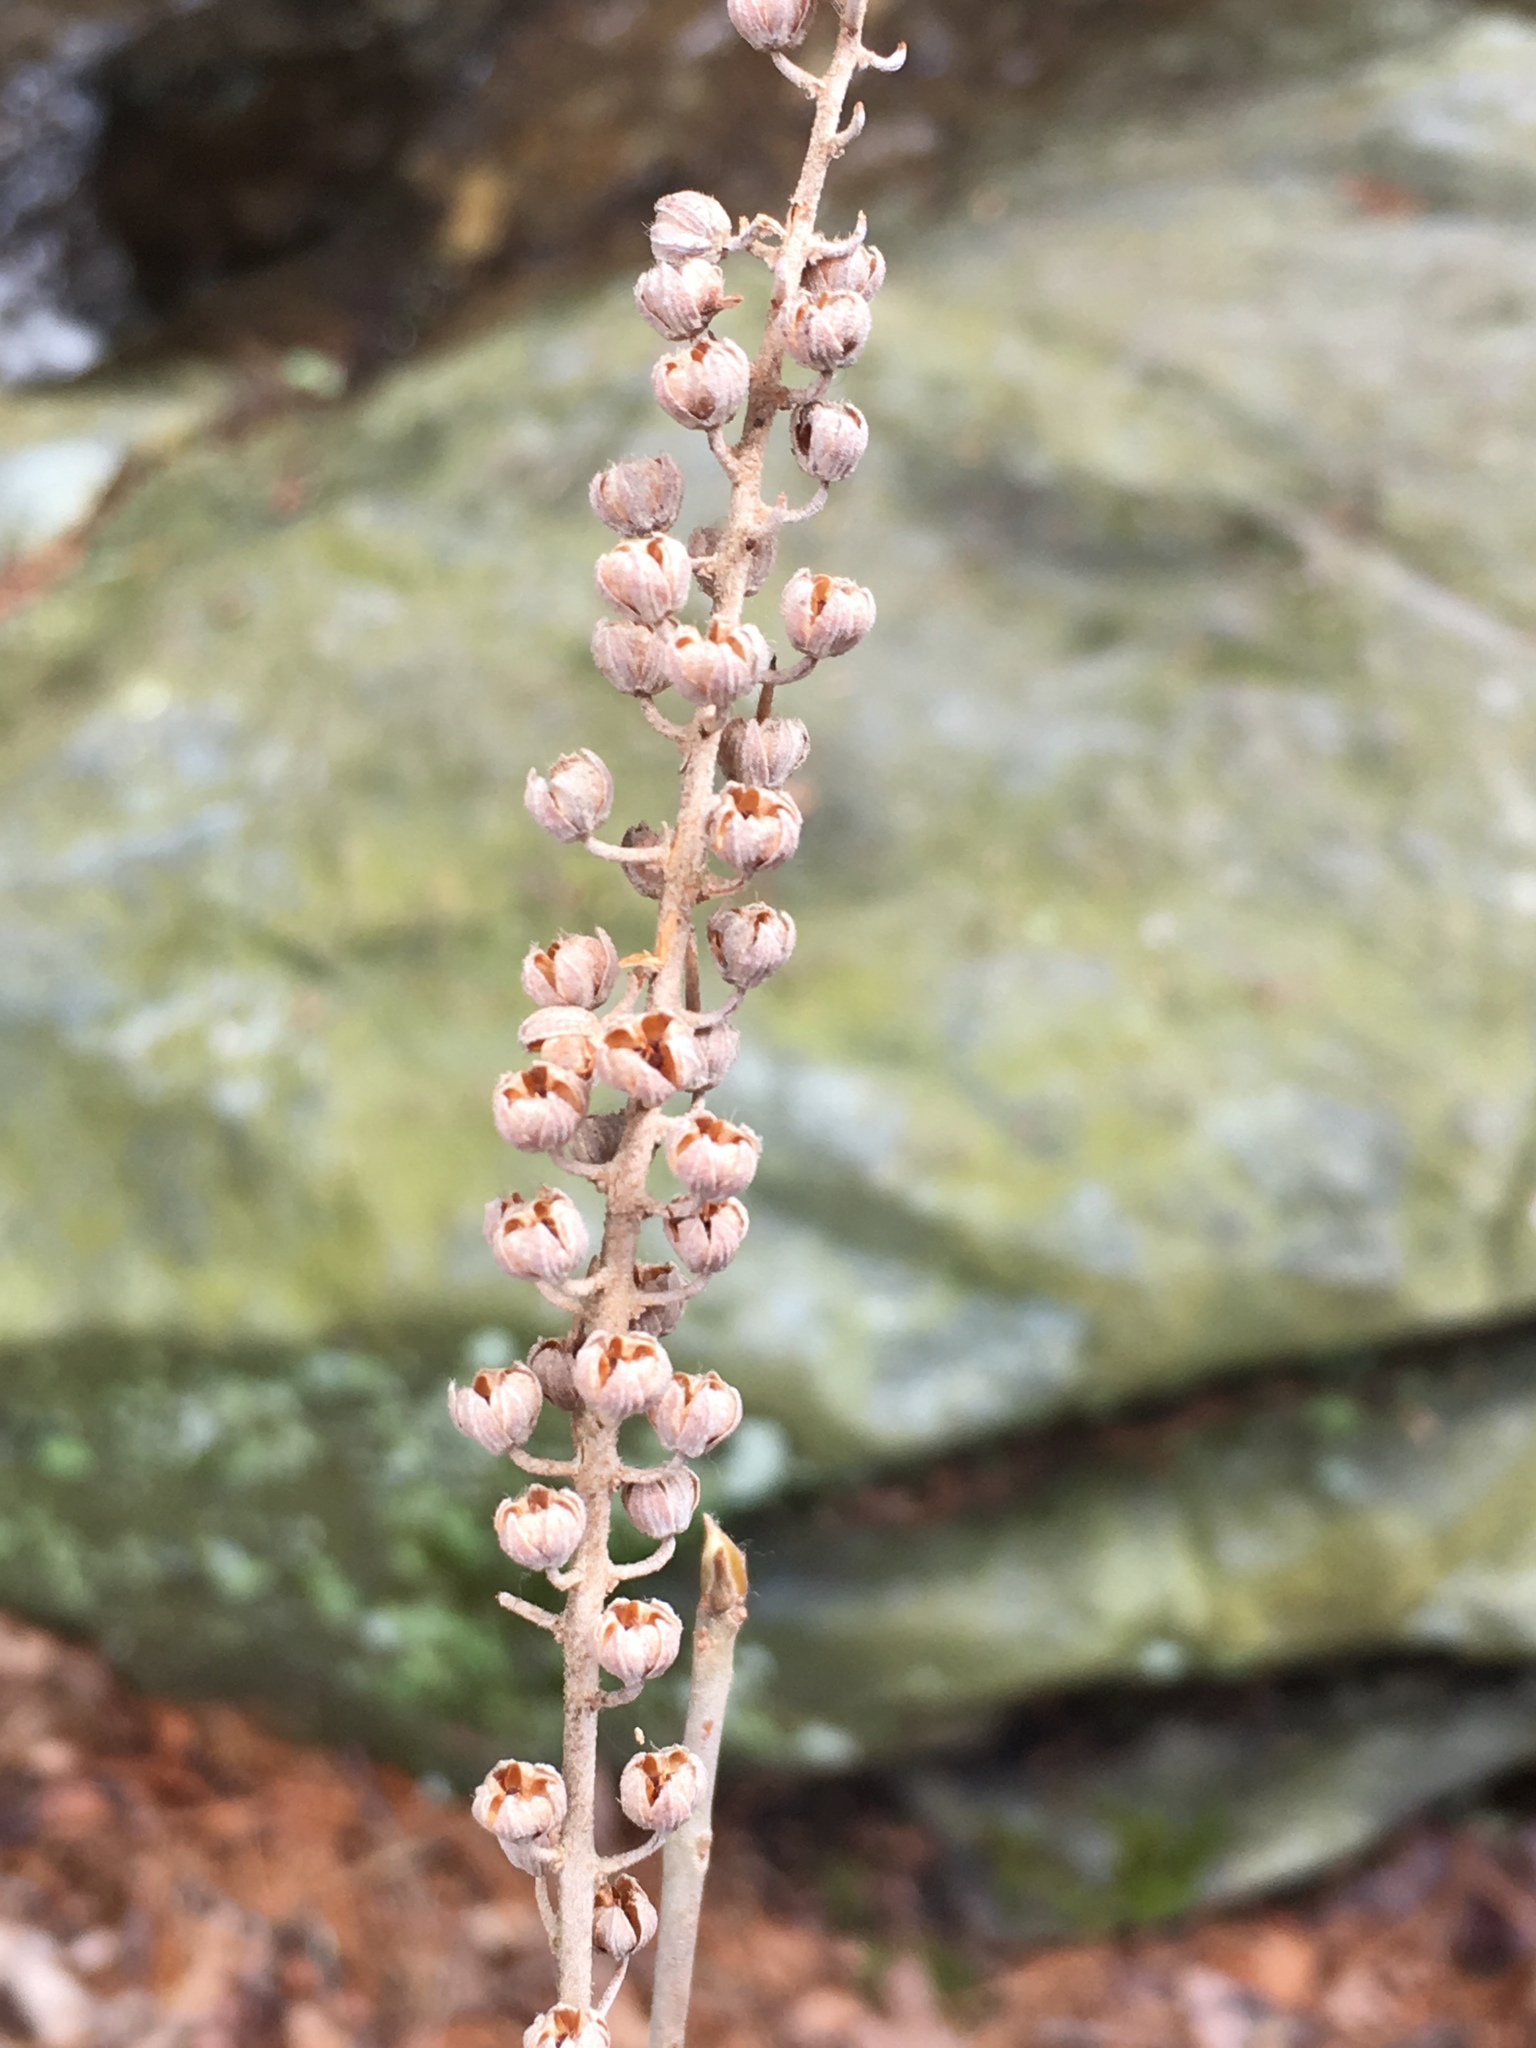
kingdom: Plantae
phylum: Tracheophyta
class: Magnoliopsida
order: Ericales
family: Clethraceae
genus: Clethra
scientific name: Clethra alnifolia
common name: Sweet pepperbush
